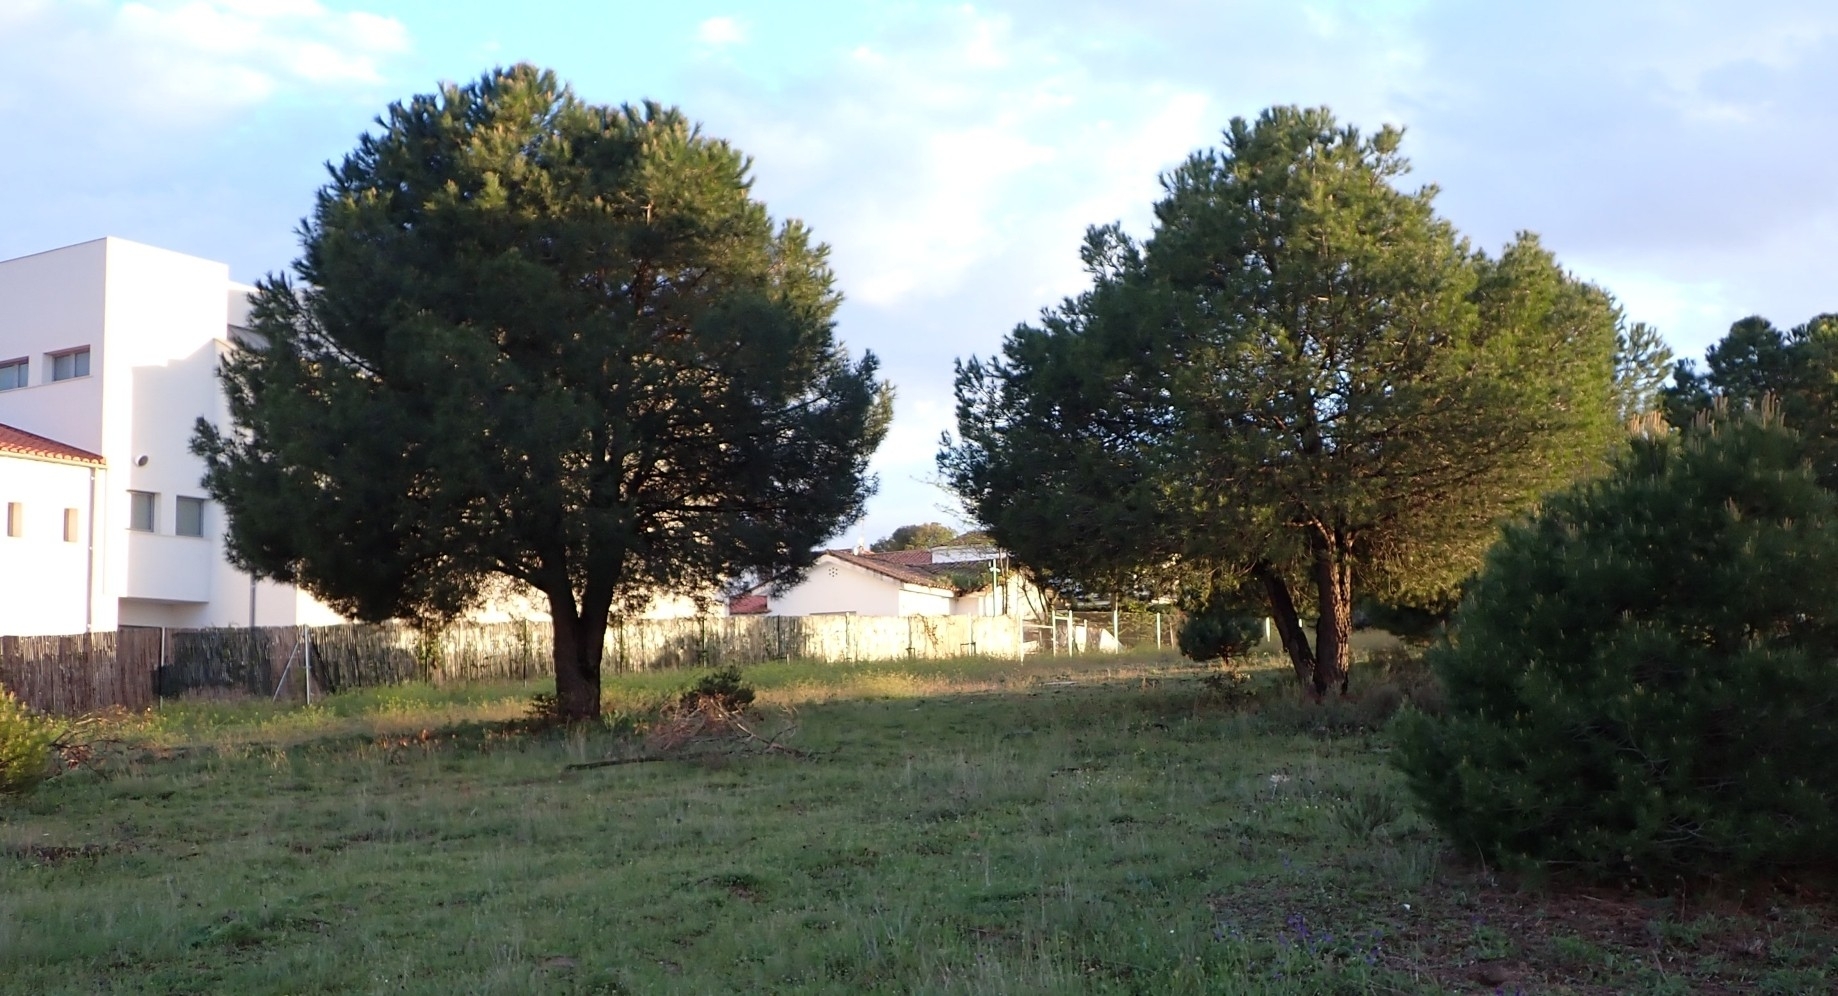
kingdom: Plantae
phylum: Tracheophyta
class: Pinopsida
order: Pinales
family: Pinaceae
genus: Pinus
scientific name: Pinus pinea
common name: Italian stone pine
